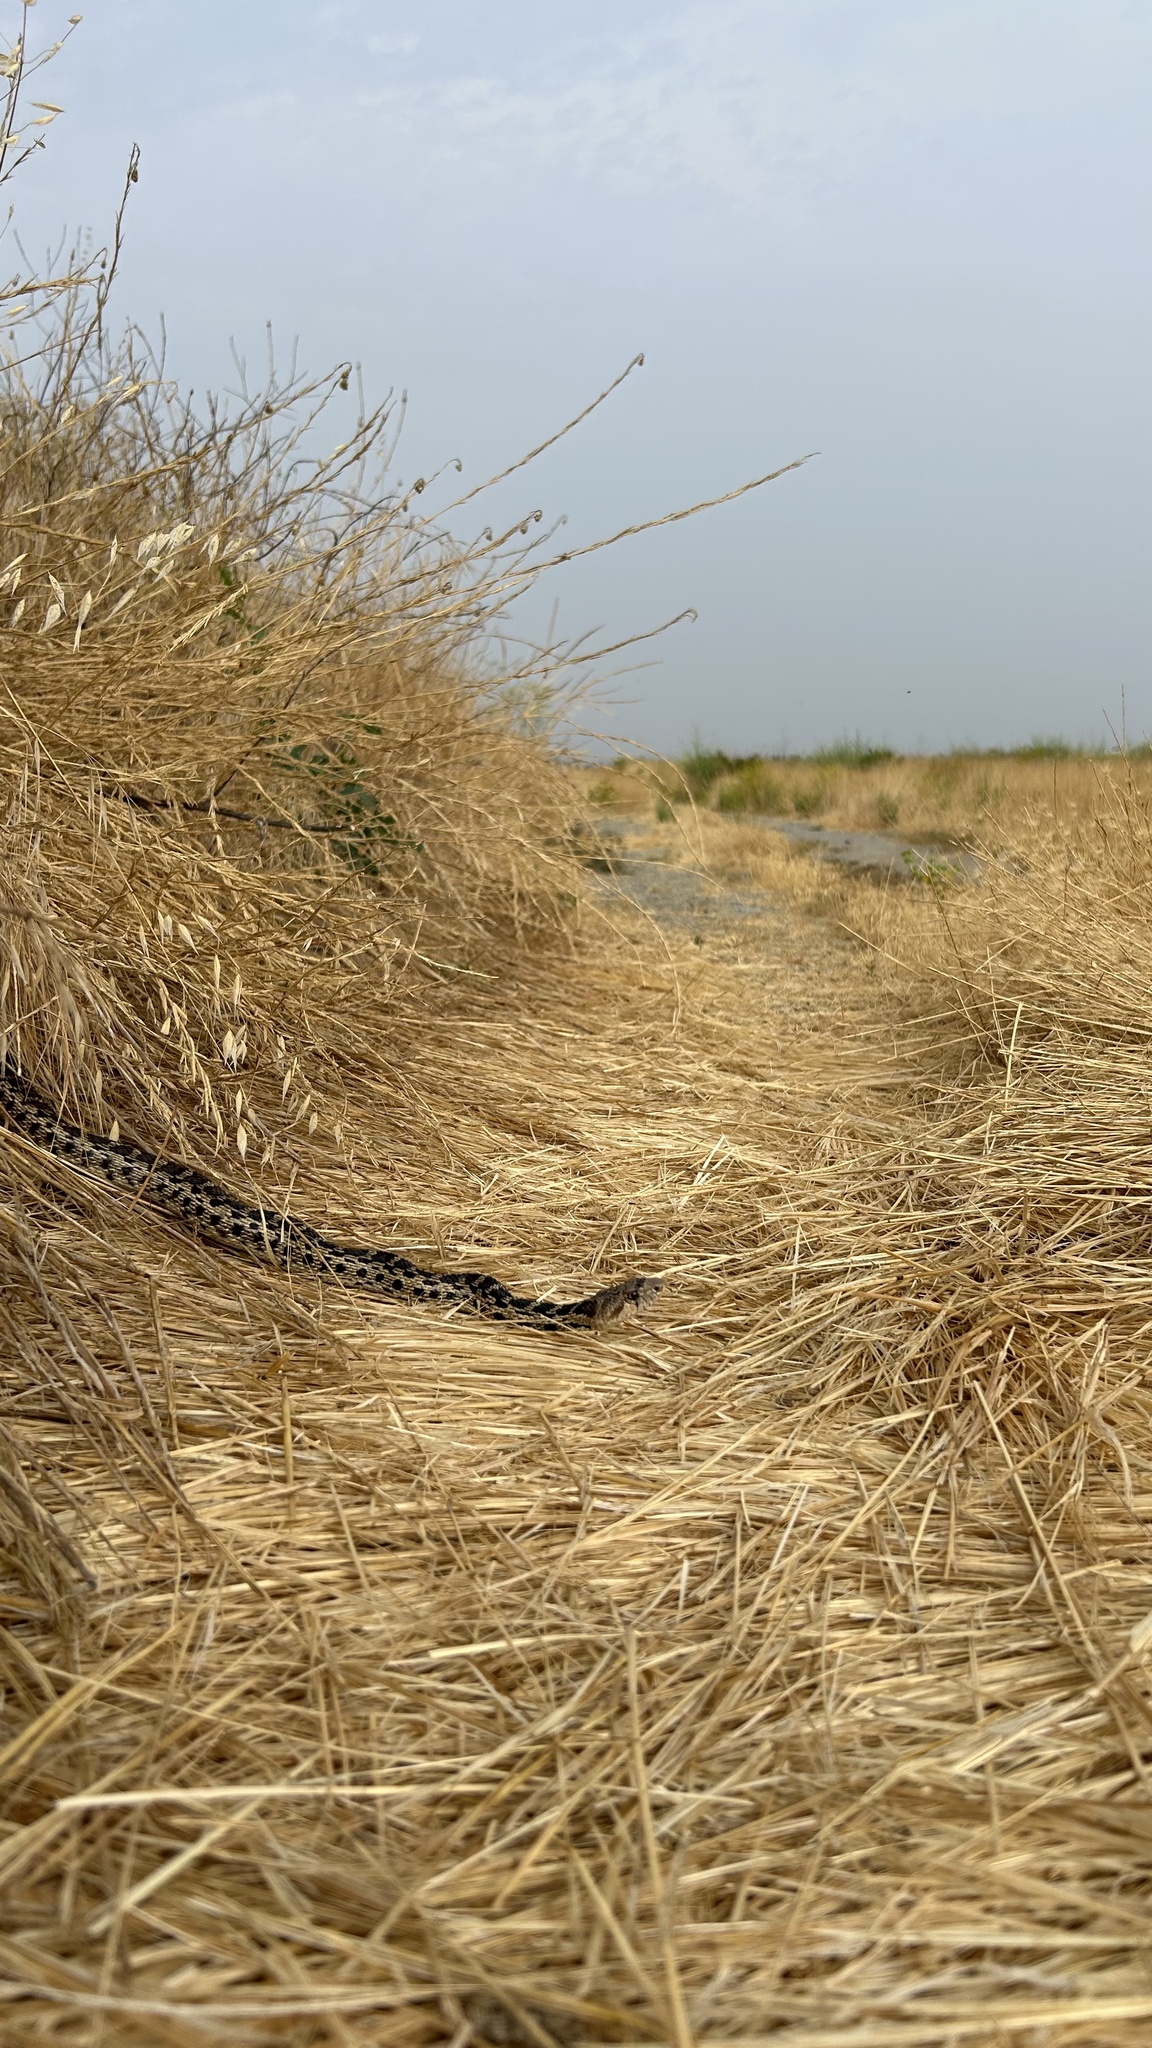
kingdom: Animalia
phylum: Chordata
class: Squamata
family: Colubridae
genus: Pituophis
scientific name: Pituophis catenifer
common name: Gopher snake
